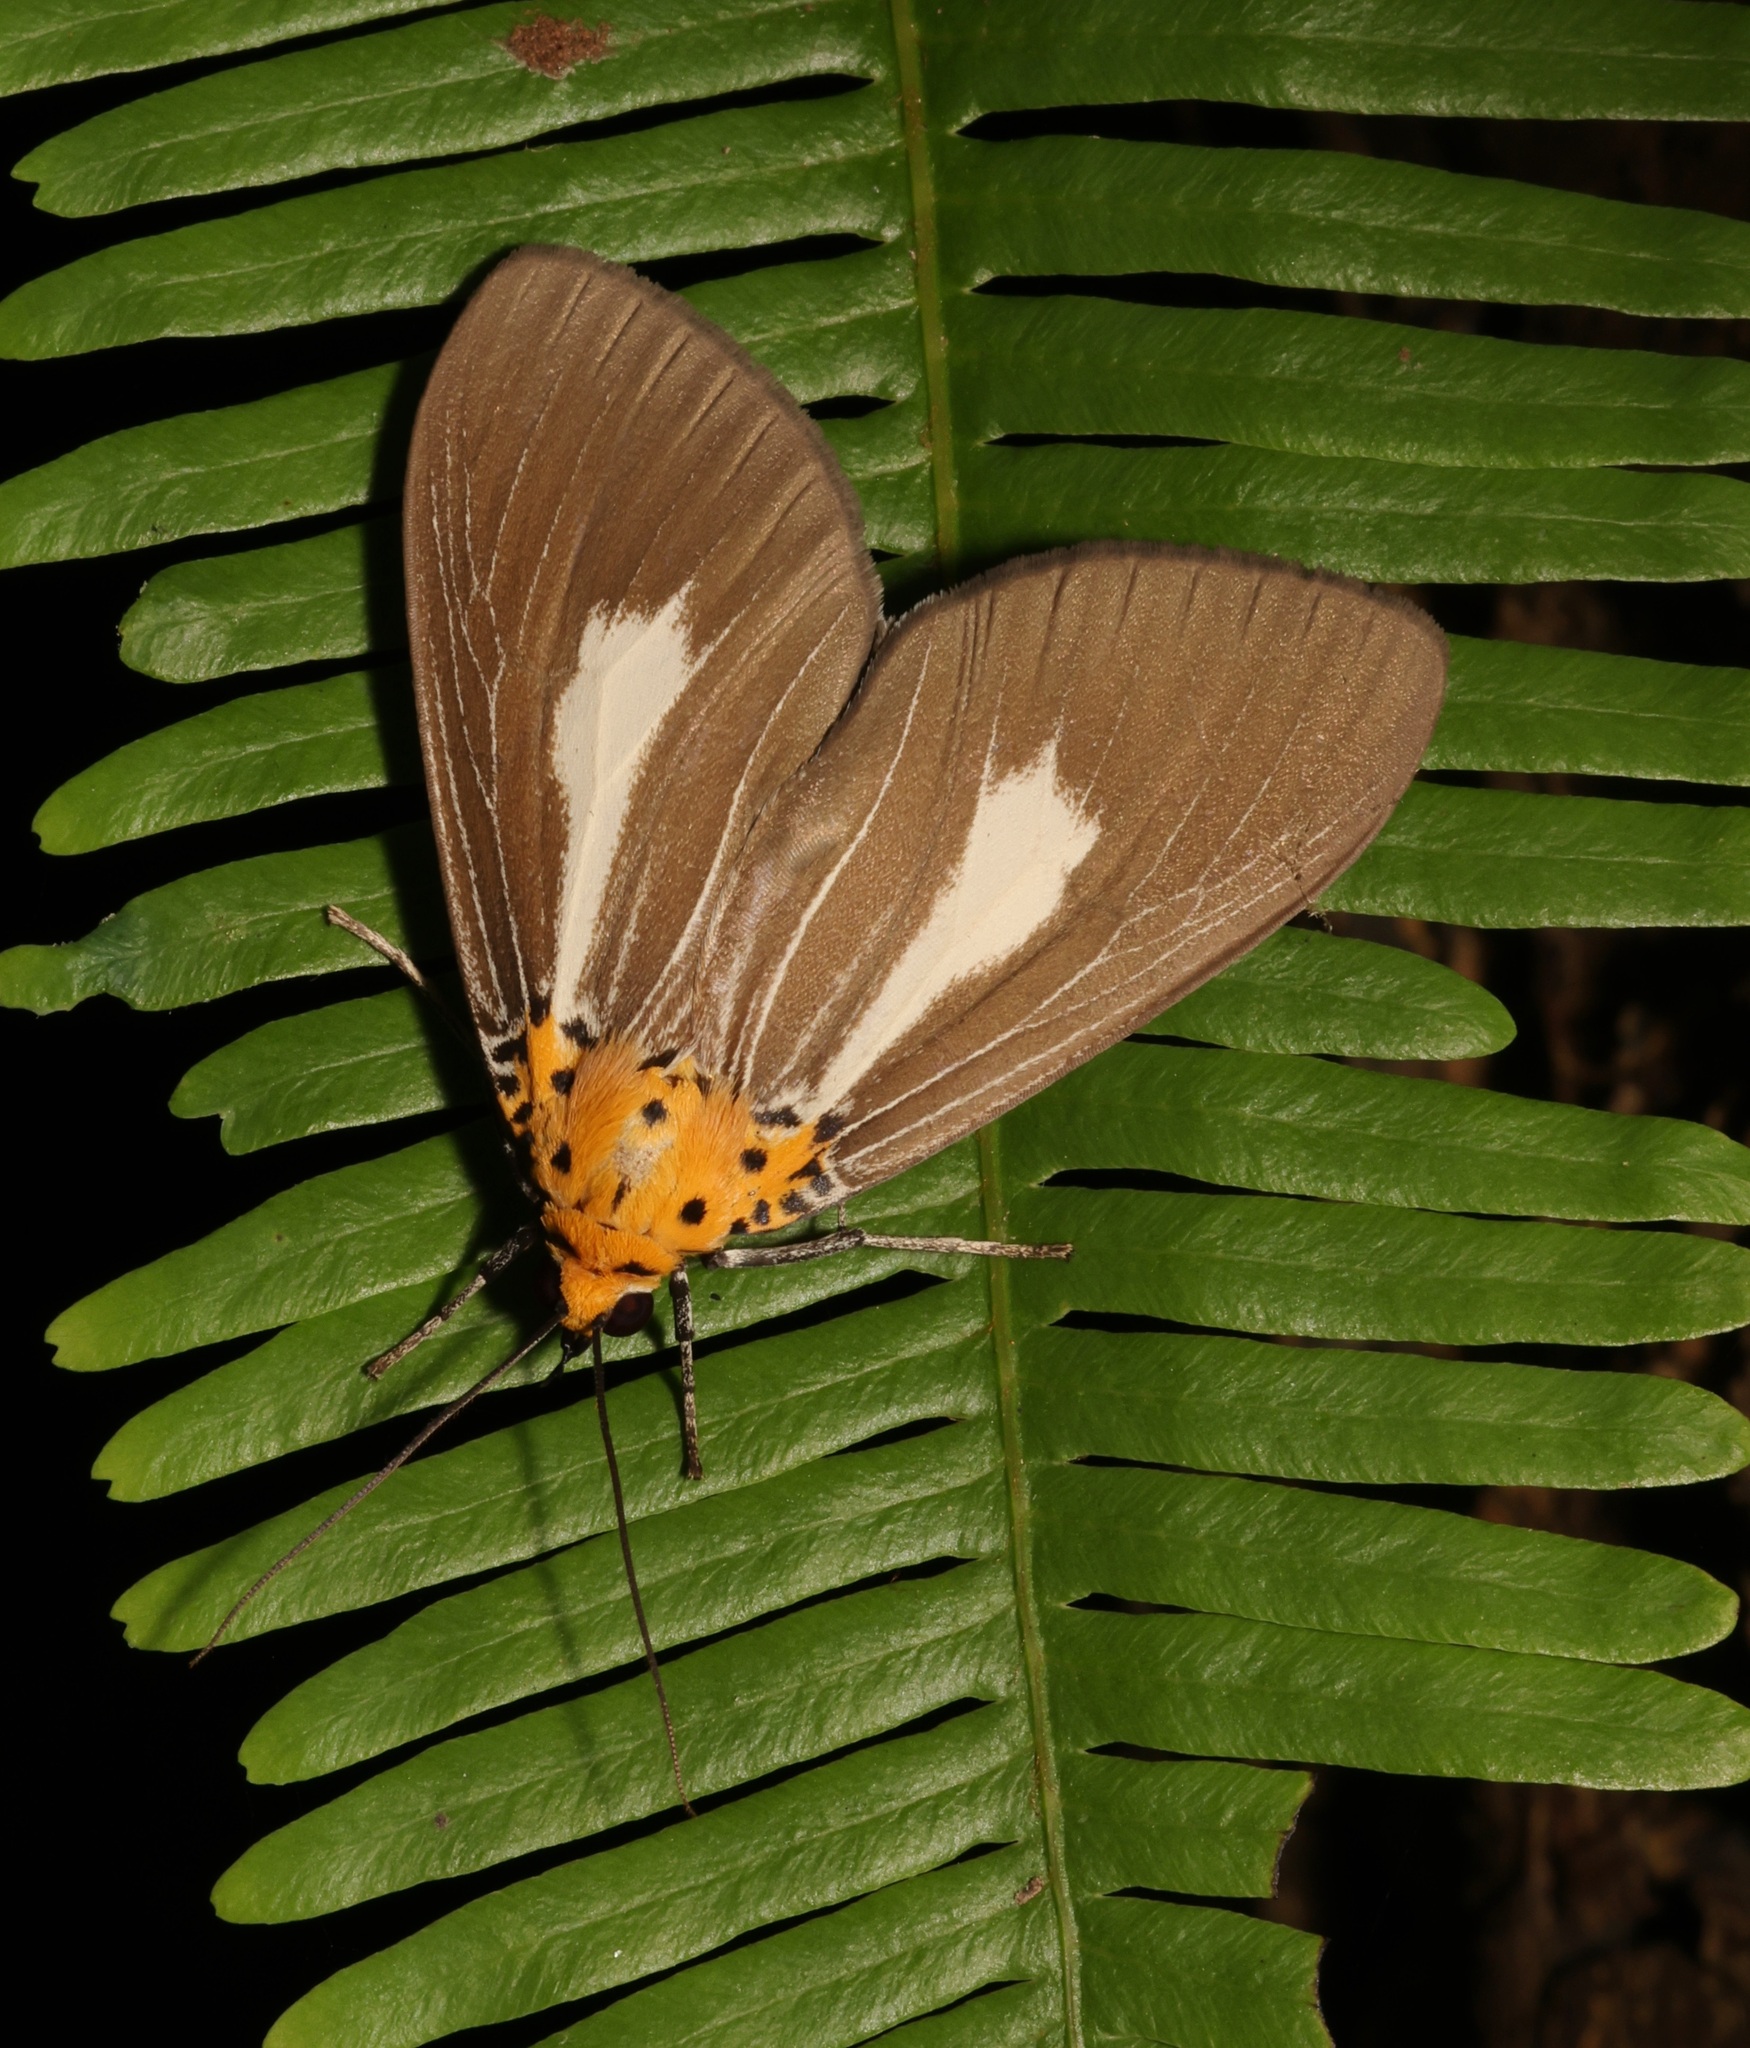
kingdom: Animalia
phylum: Arthropoda
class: Insecta
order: Lepidoptera
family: Erebidae
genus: Asota
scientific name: Asota heliconia
